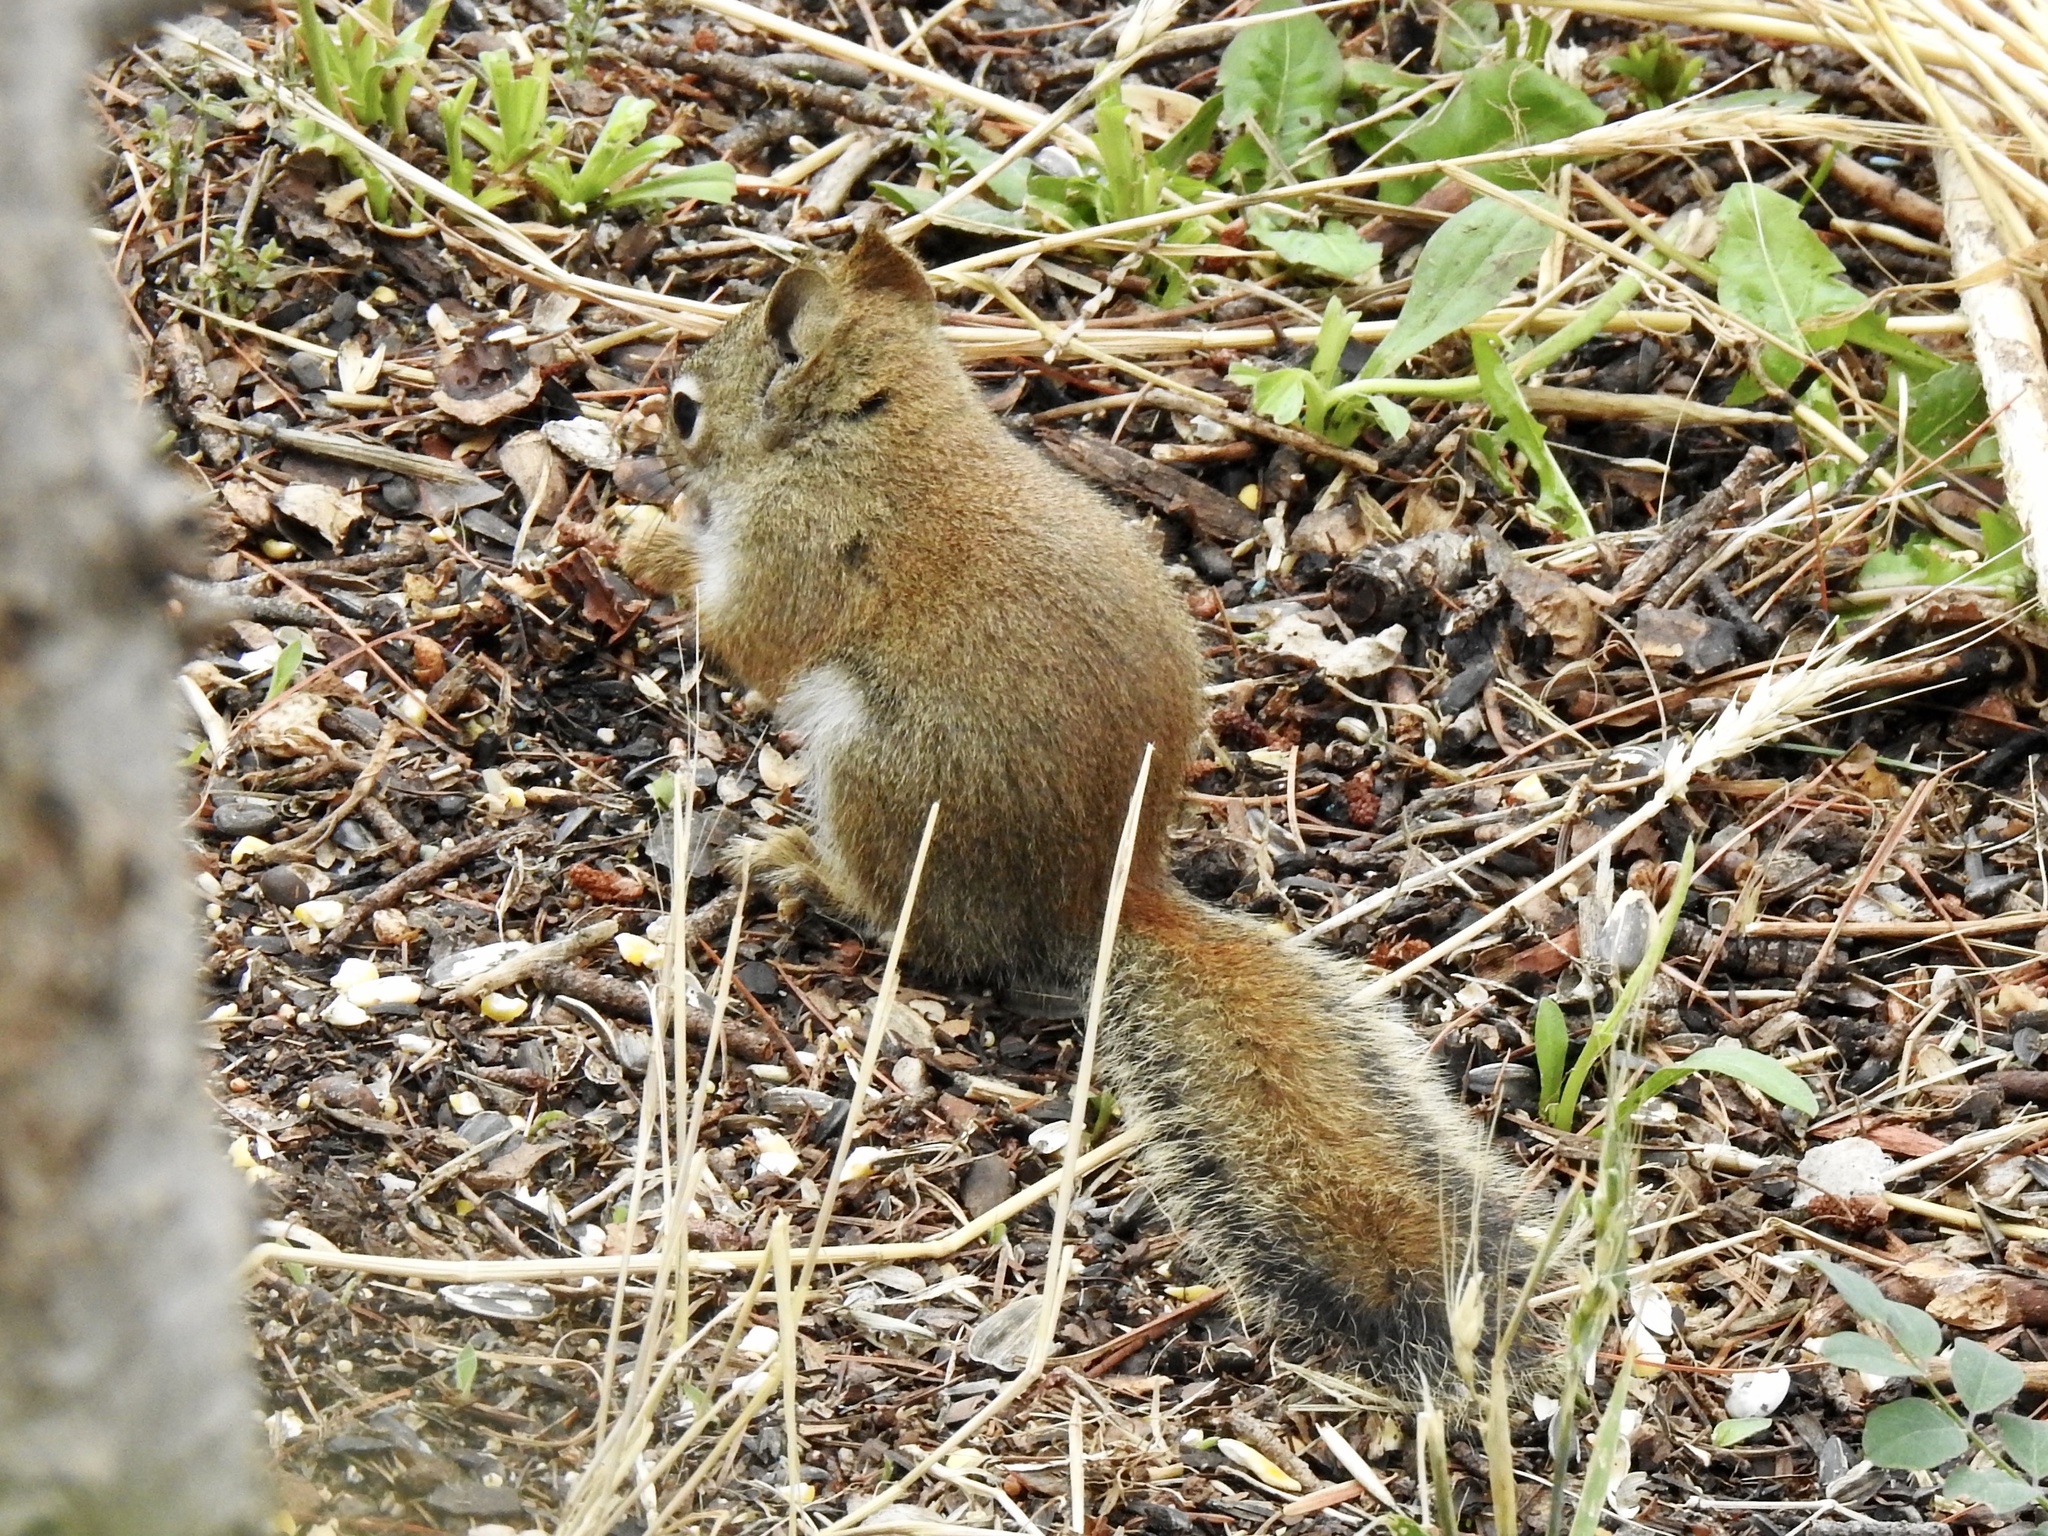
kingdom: Animalia
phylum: Chordata
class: Mammalia
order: Rodentia
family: Sciuridae
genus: Tamiasciurus
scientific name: Tamiasciurus hudsonicus
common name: Red squirrel
